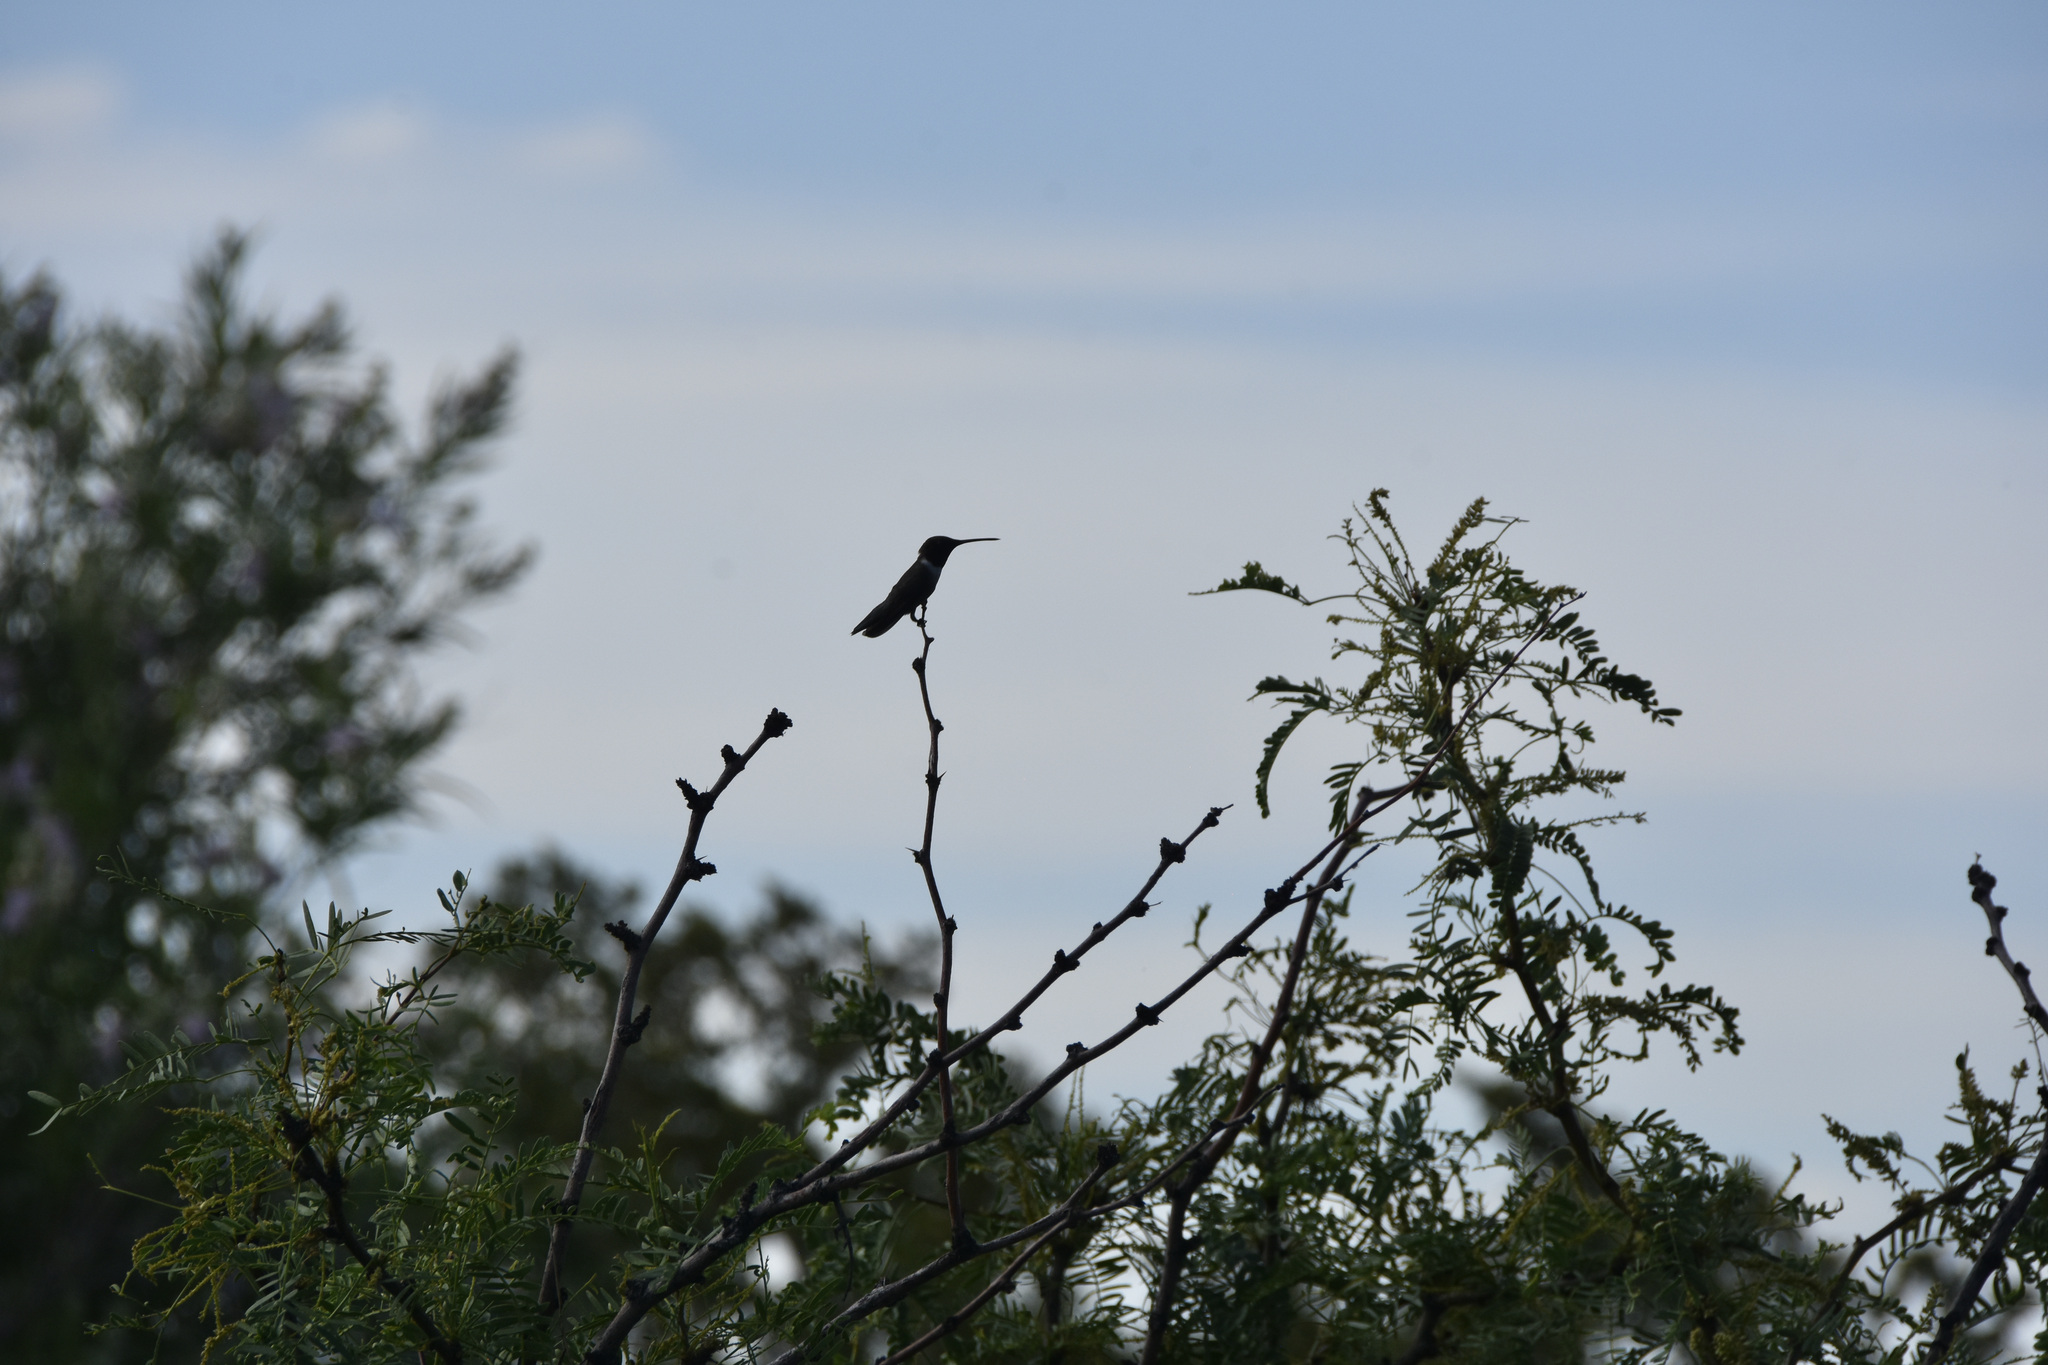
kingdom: Animalia
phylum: Chordata
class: Aves
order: Apodiformes
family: Trochilidae
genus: Archilochus
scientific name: Archilochus alexandri
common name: Black-chinned hummingbird
